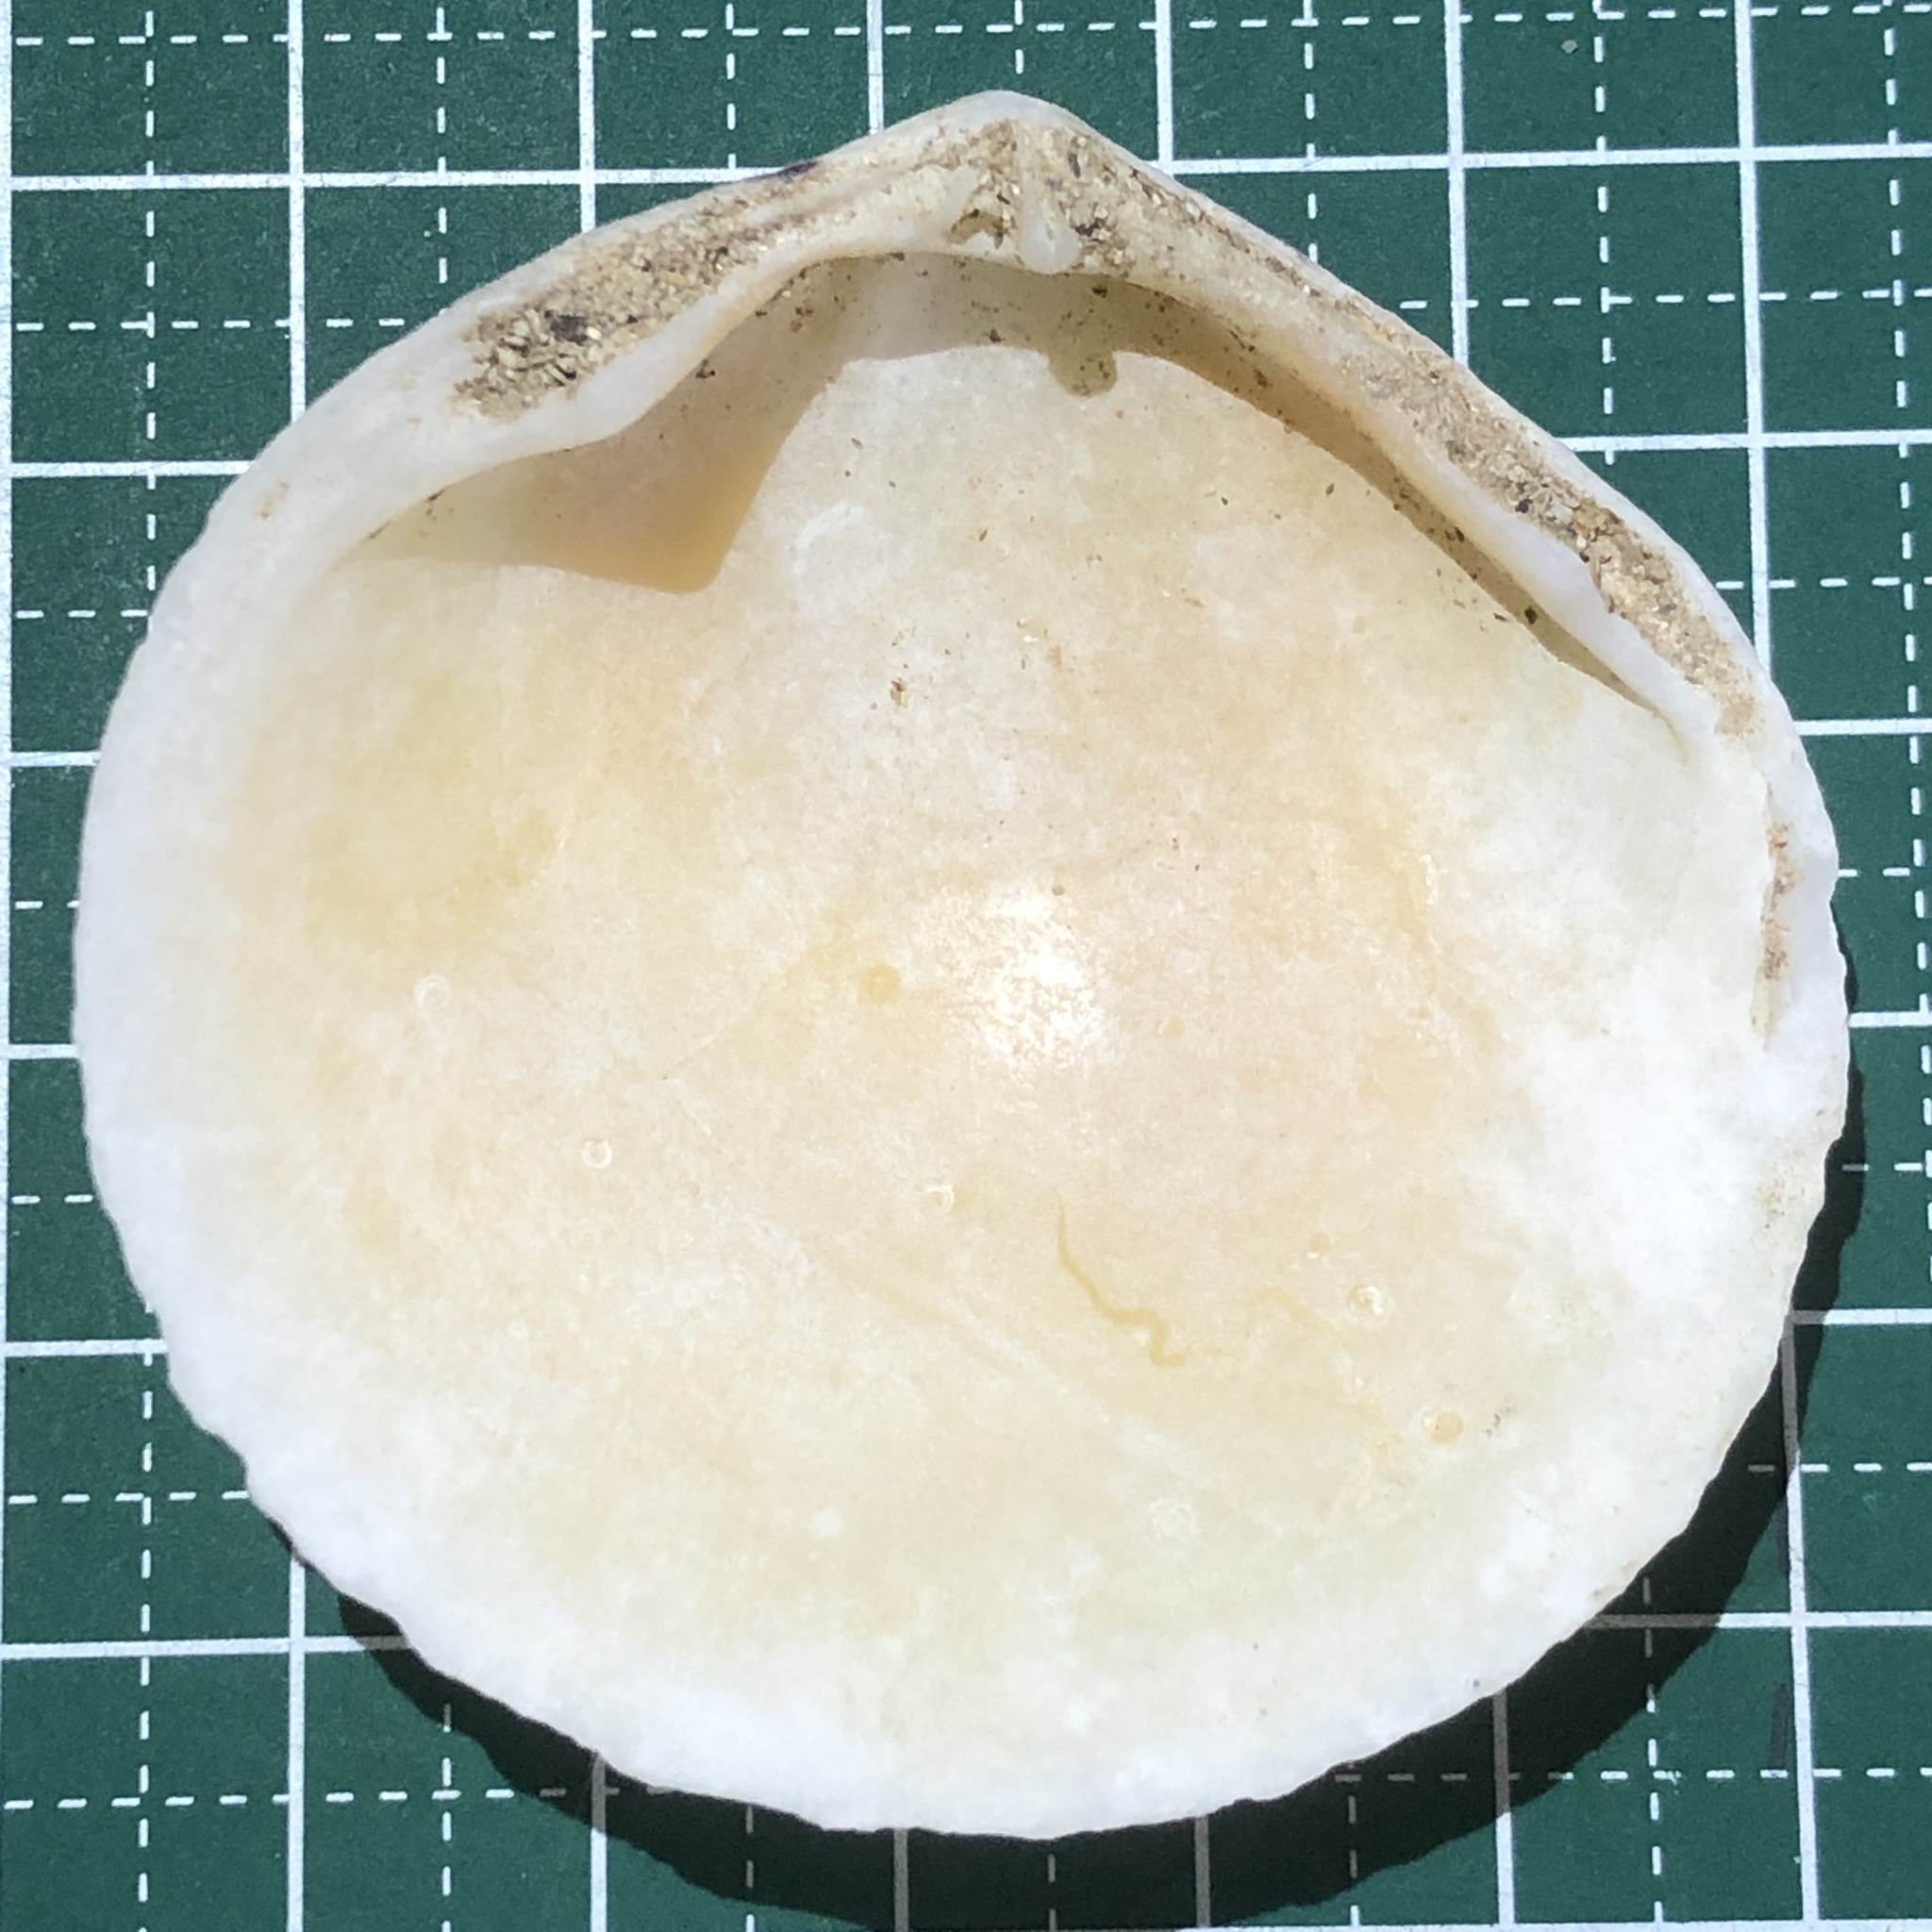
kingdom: Animalia
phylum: Mollusca
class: Bivalvia
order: Cardiida
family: Tellinidae
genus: Scutarcopagia
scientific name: Scutarcopagia scobinata
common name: Rasp tellin
